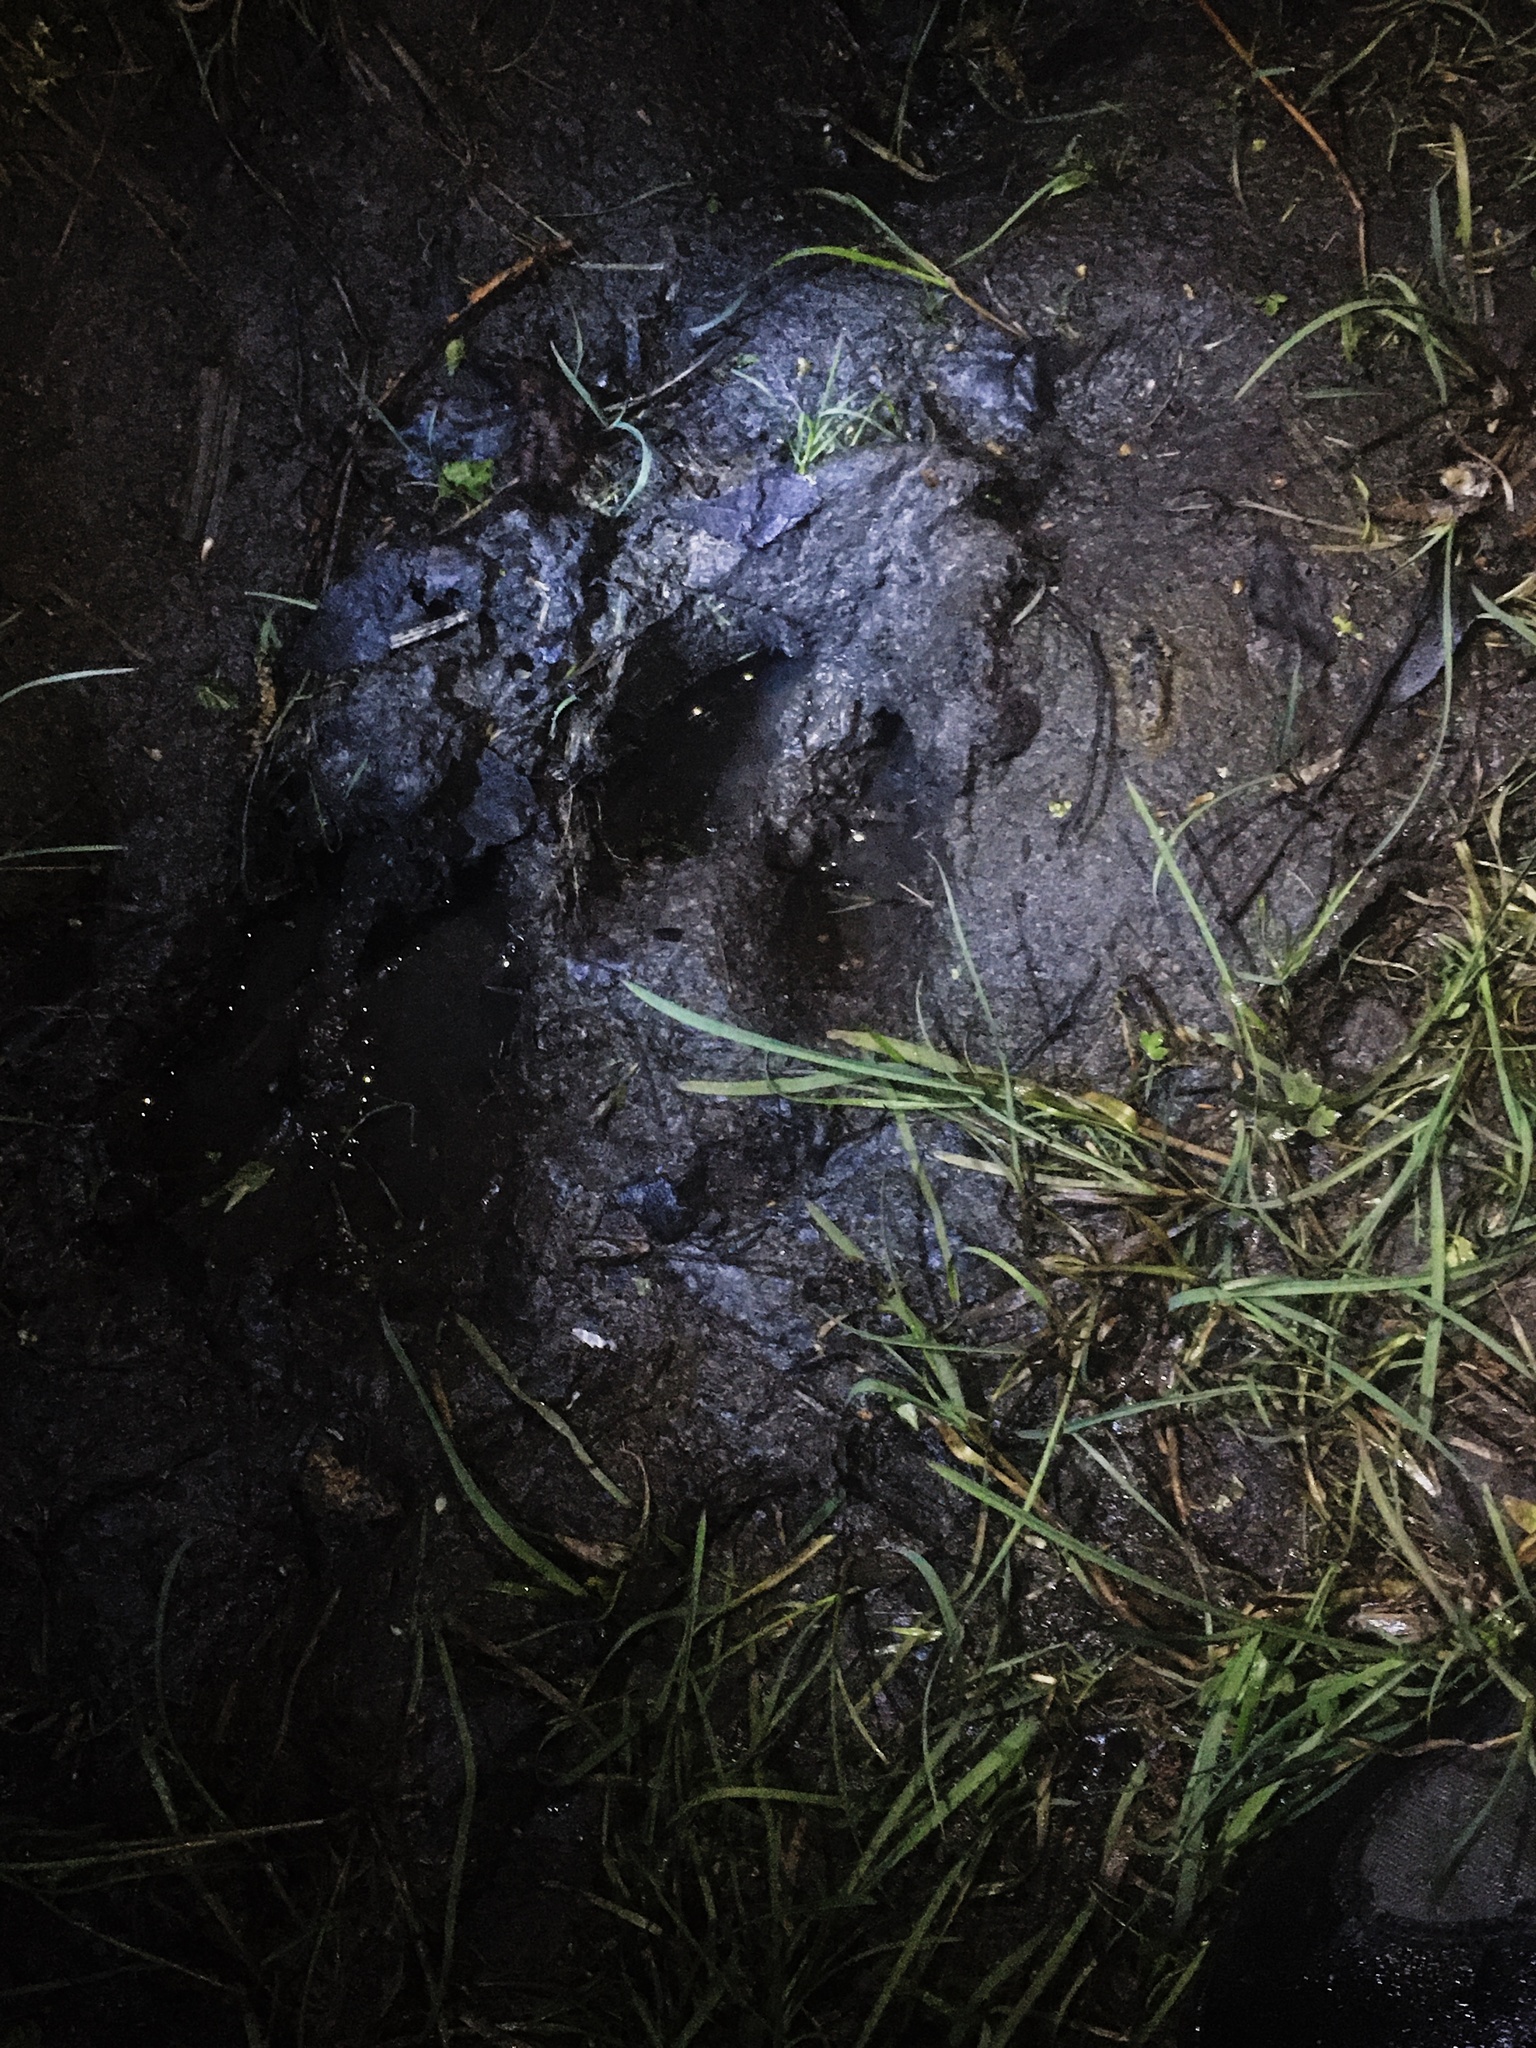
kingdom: Animalia
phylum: Chordata
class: Mammalia
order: Artiodactyla
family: Cervidae
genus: Alces
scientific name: Alces alces
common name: Moose
